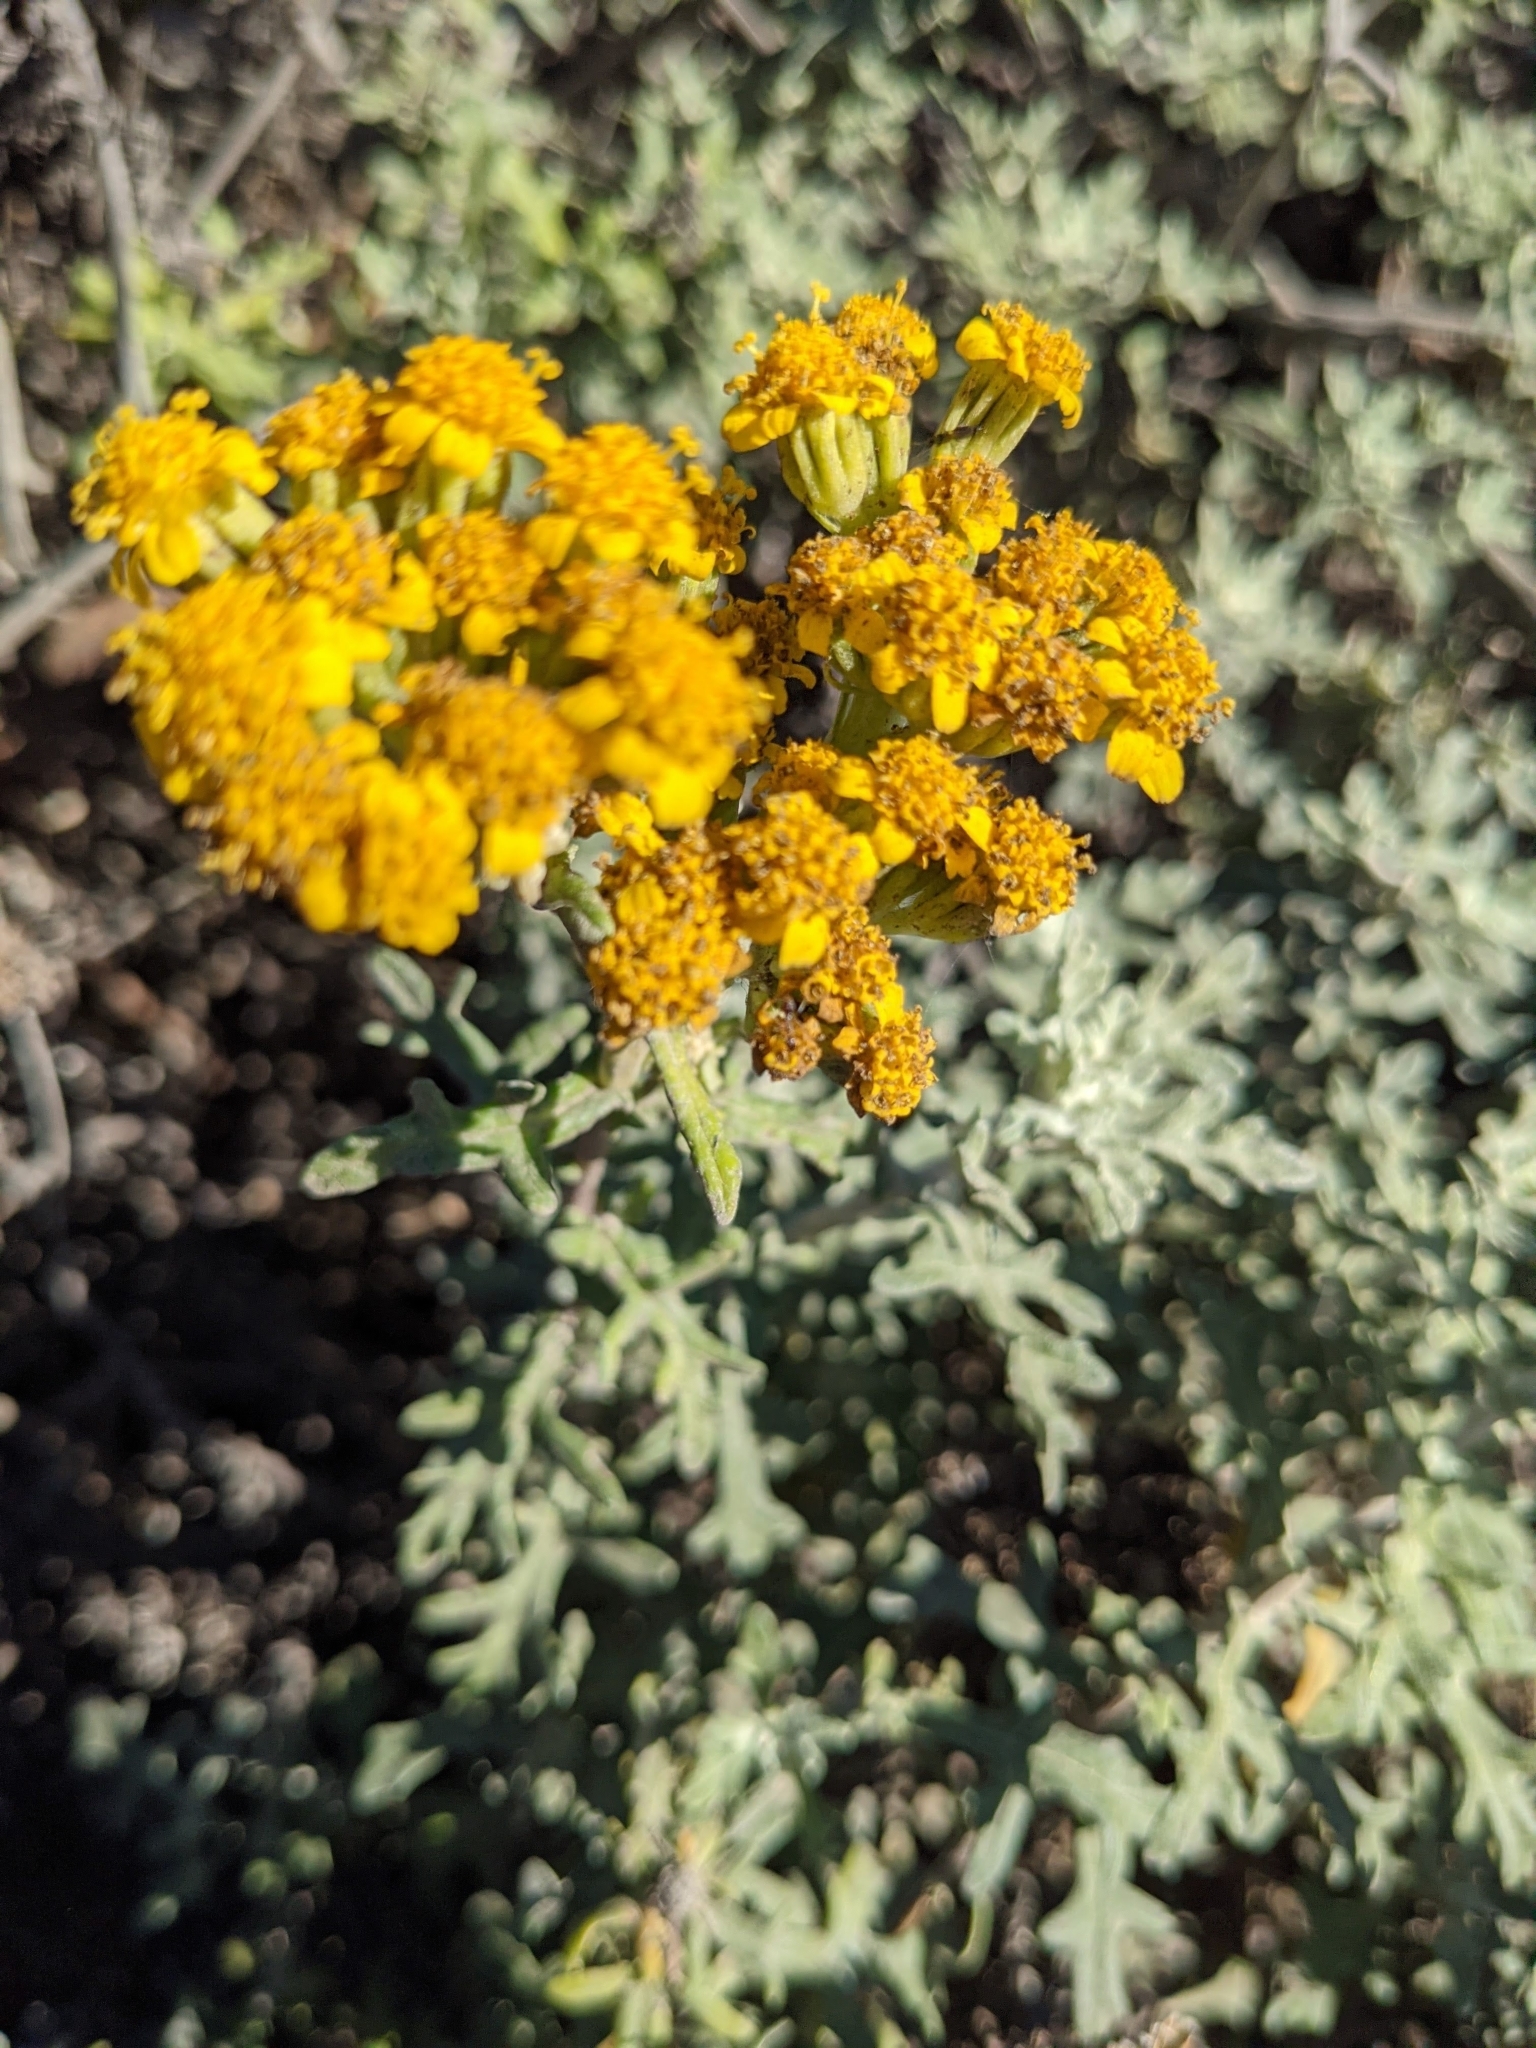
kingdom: Plantae
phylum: Tracheophyta
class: Magnoliopsida
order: Asterales
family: Asteraceae
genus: Eriophyllum
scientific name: Eriophyllum staechadifolium
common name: Lizardtail
